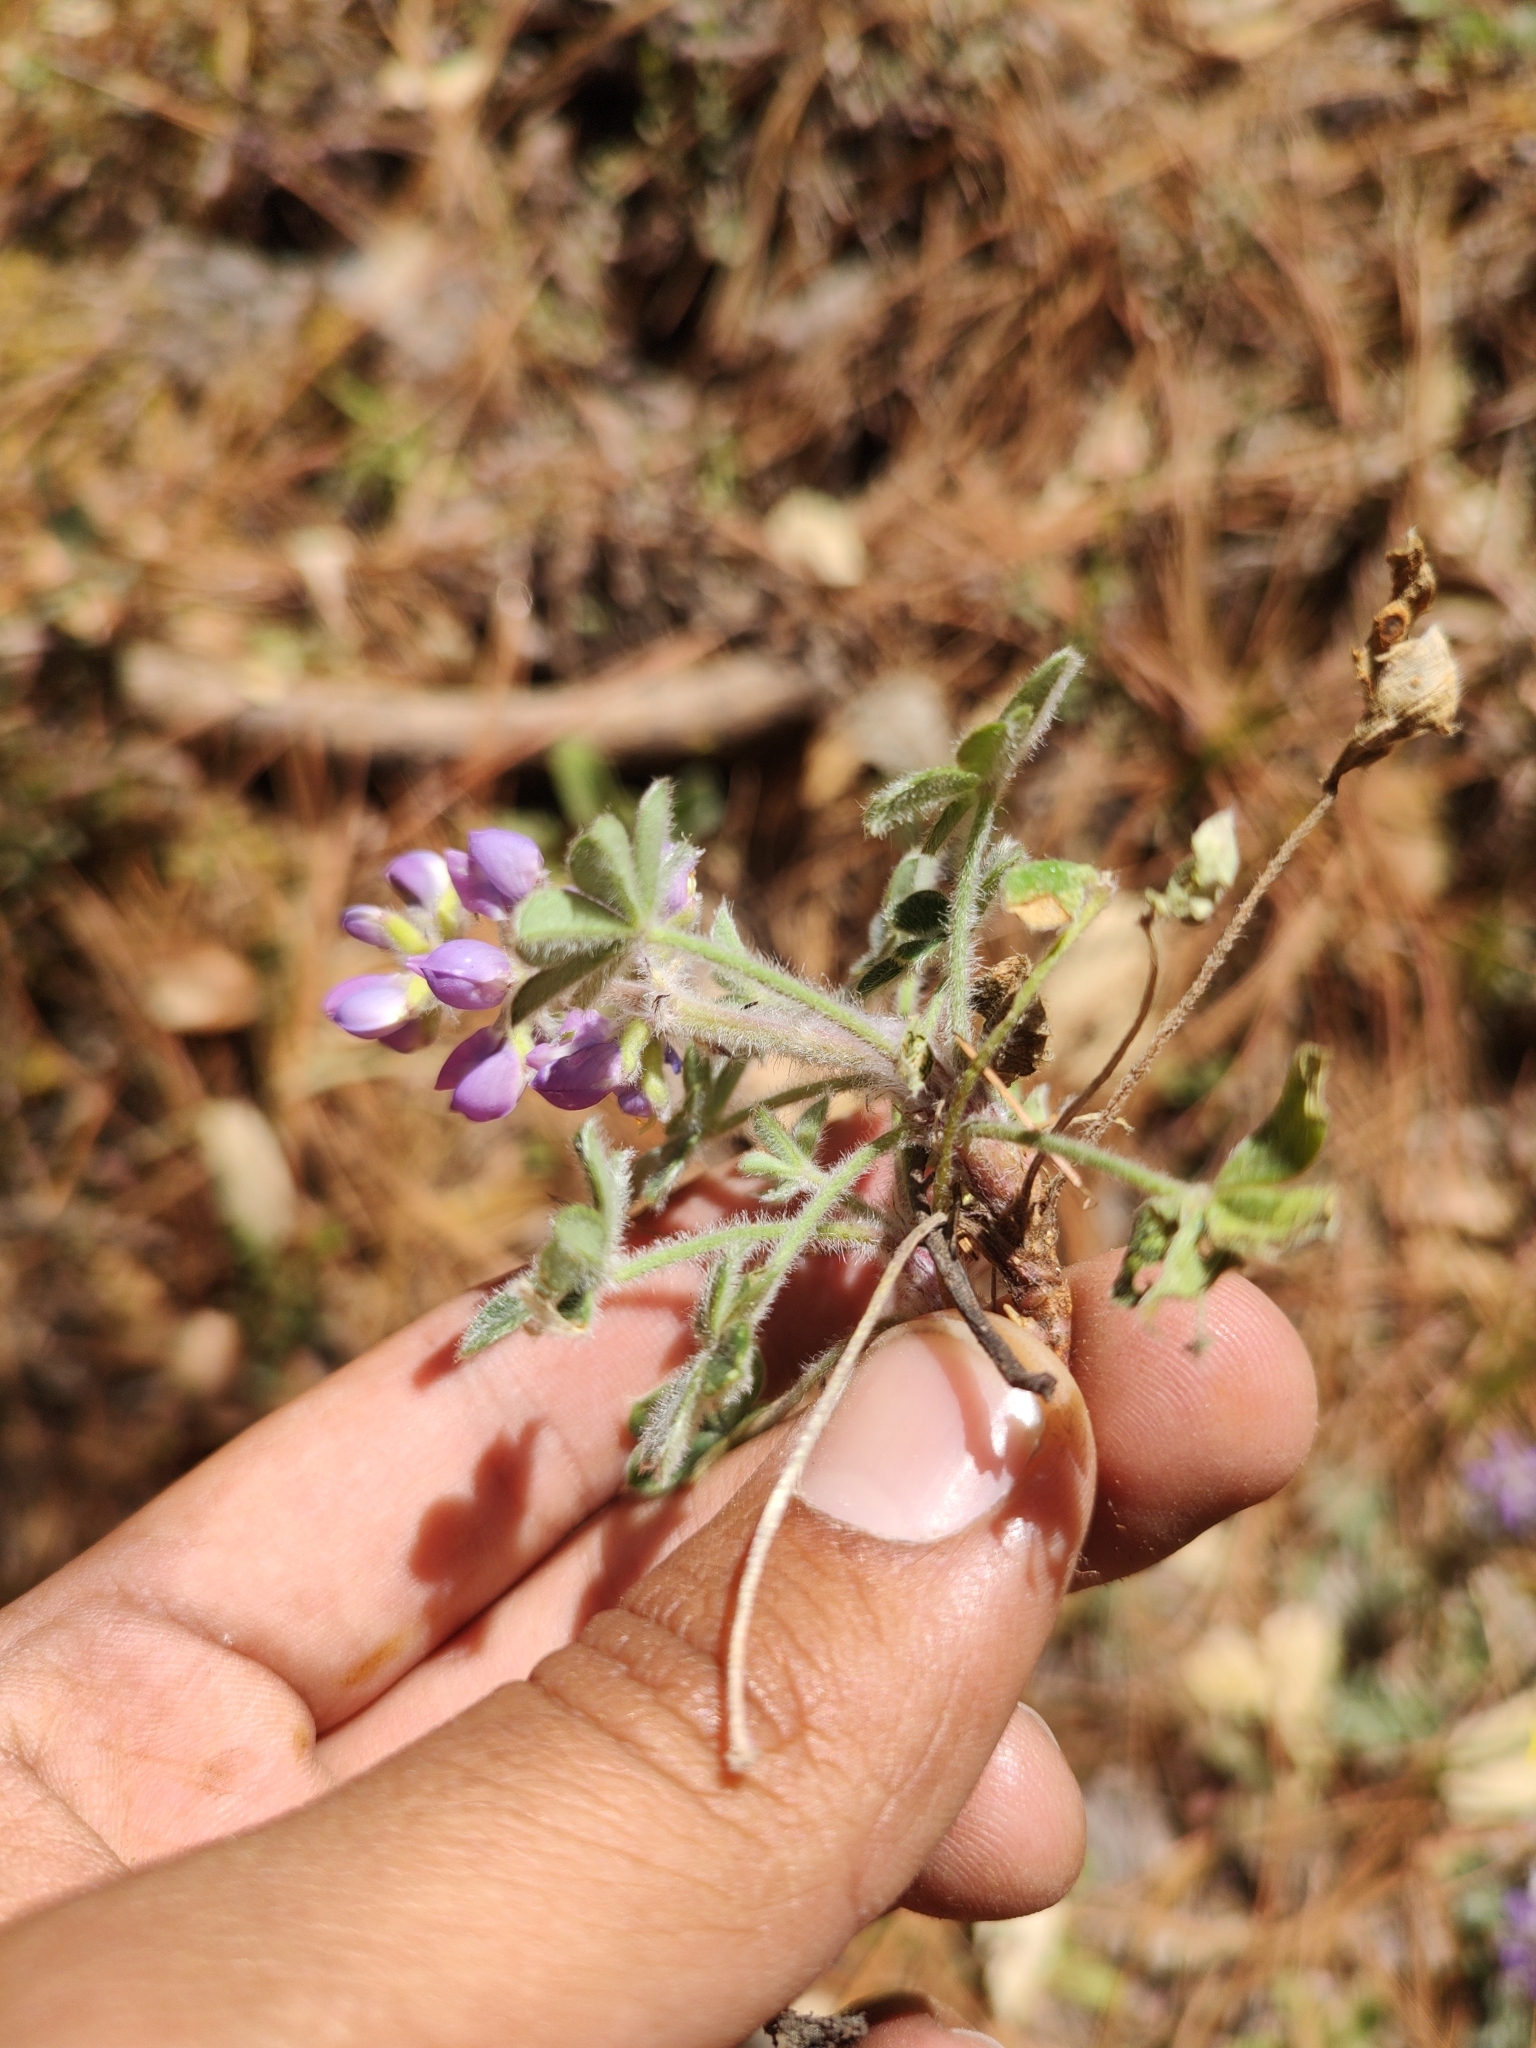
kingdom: Plantae
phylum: Tracheophyta
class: Magnoliopsida
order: Fabales
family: Fabaceae
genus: Lupinus
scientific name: Lupinus huachucanus
